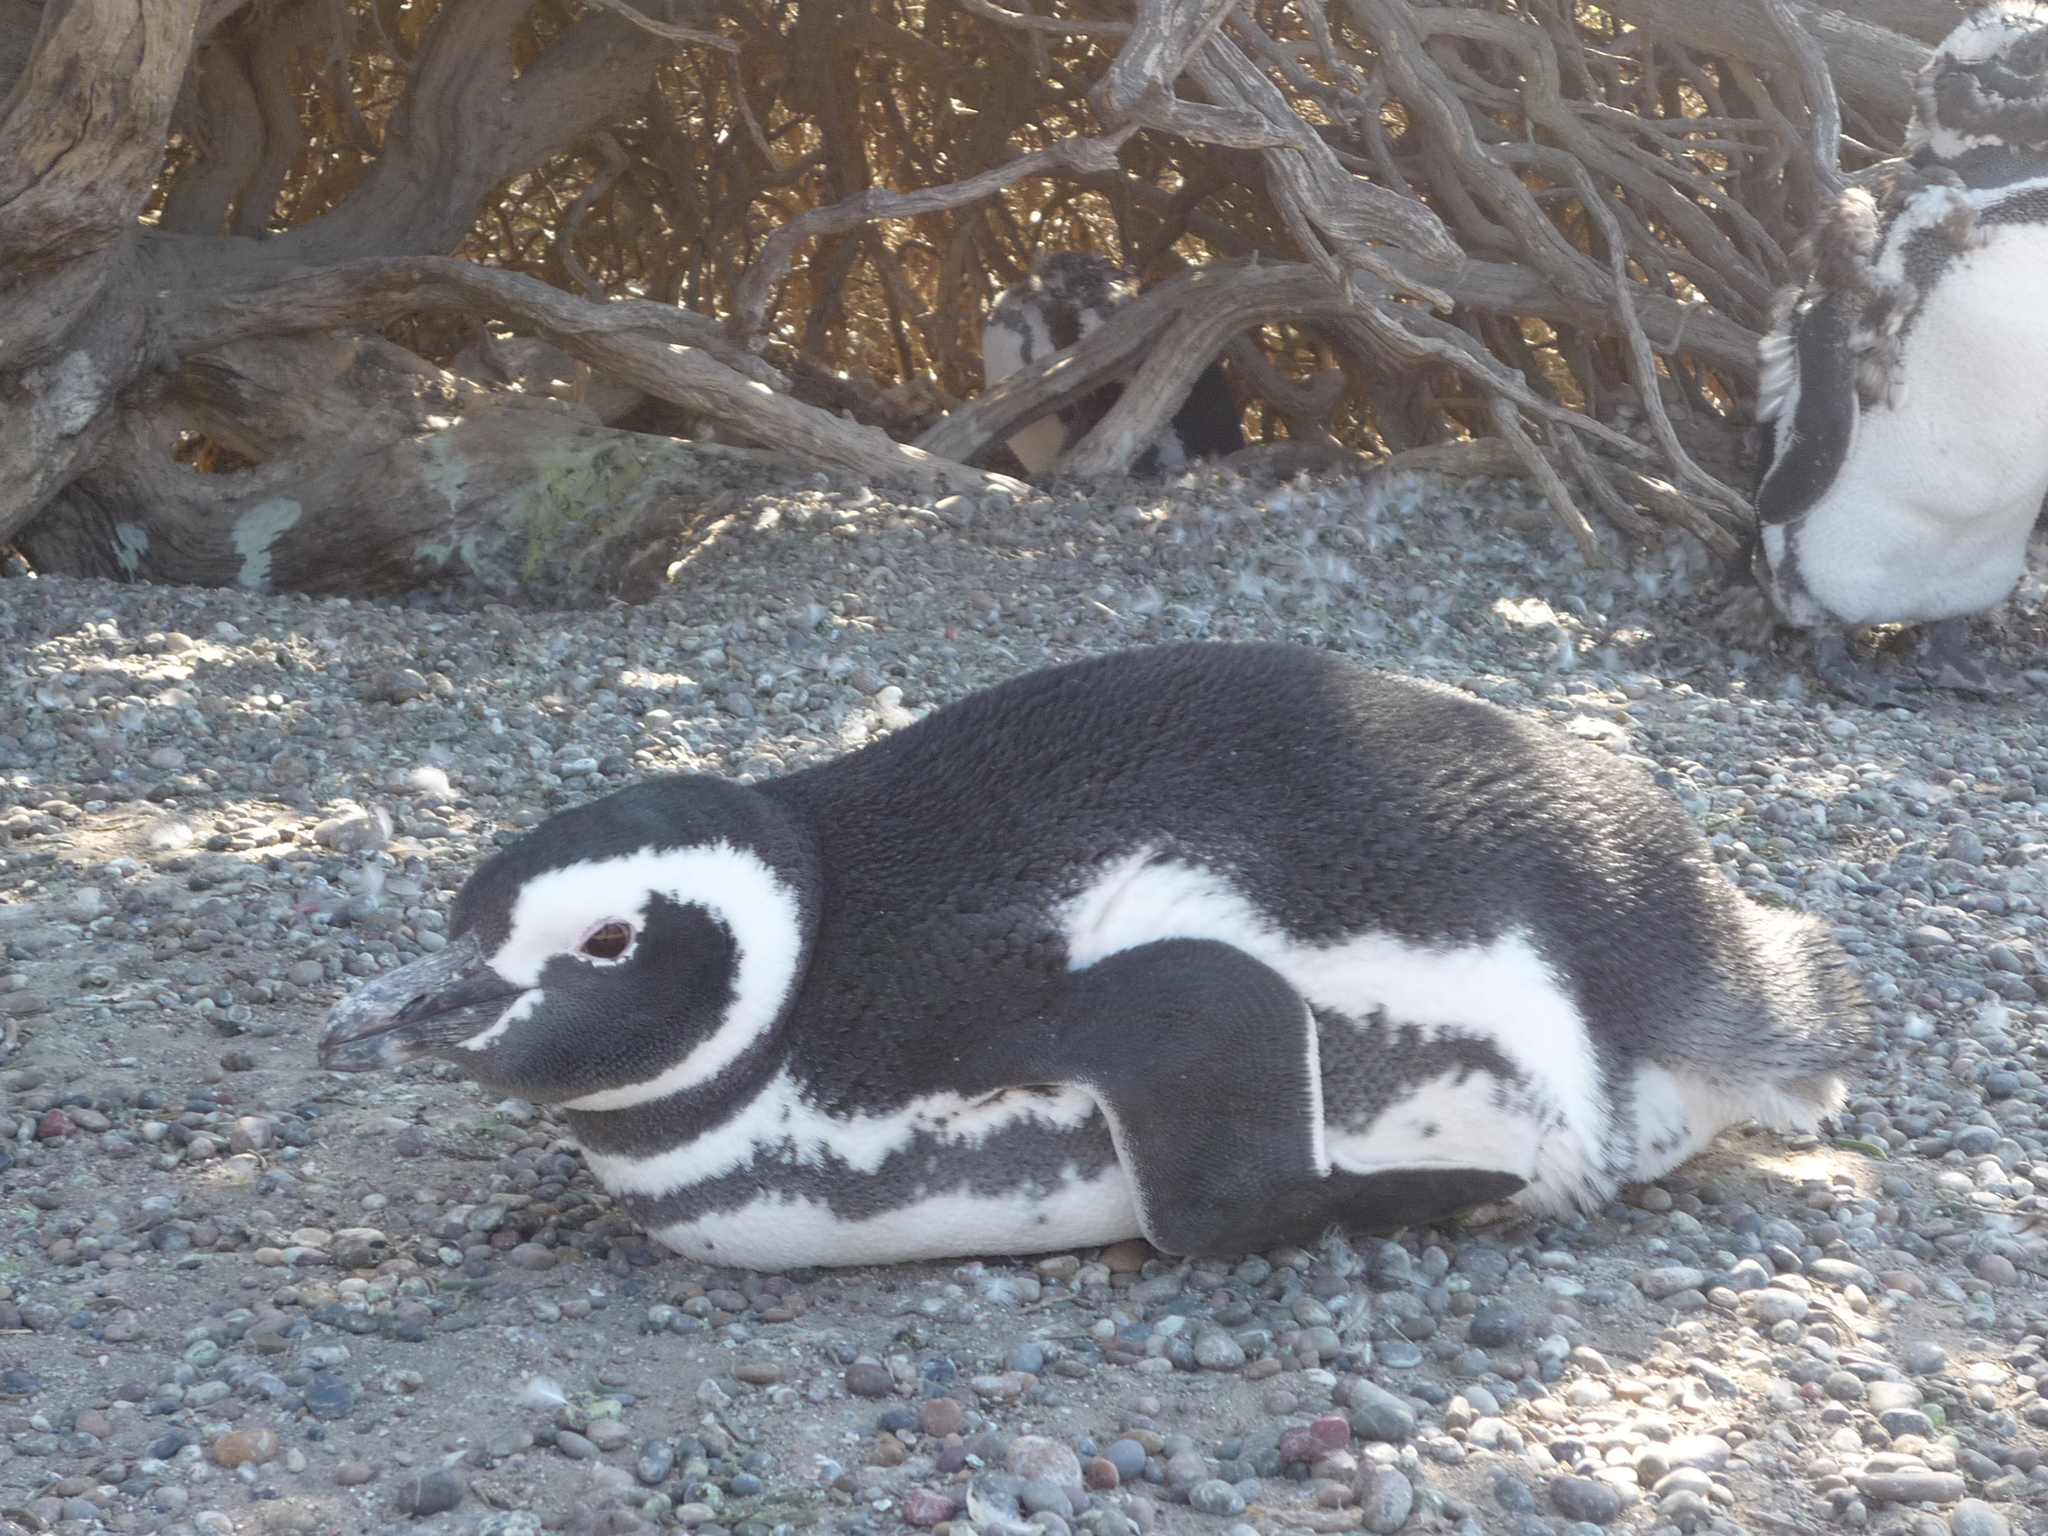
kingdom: Animalia
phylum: Chordata
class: Aves
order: Sphenisciformes
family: Spheniscidae
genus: Spheniscus
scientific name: Spheniscus magellanicus
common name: Magellanic penguin
